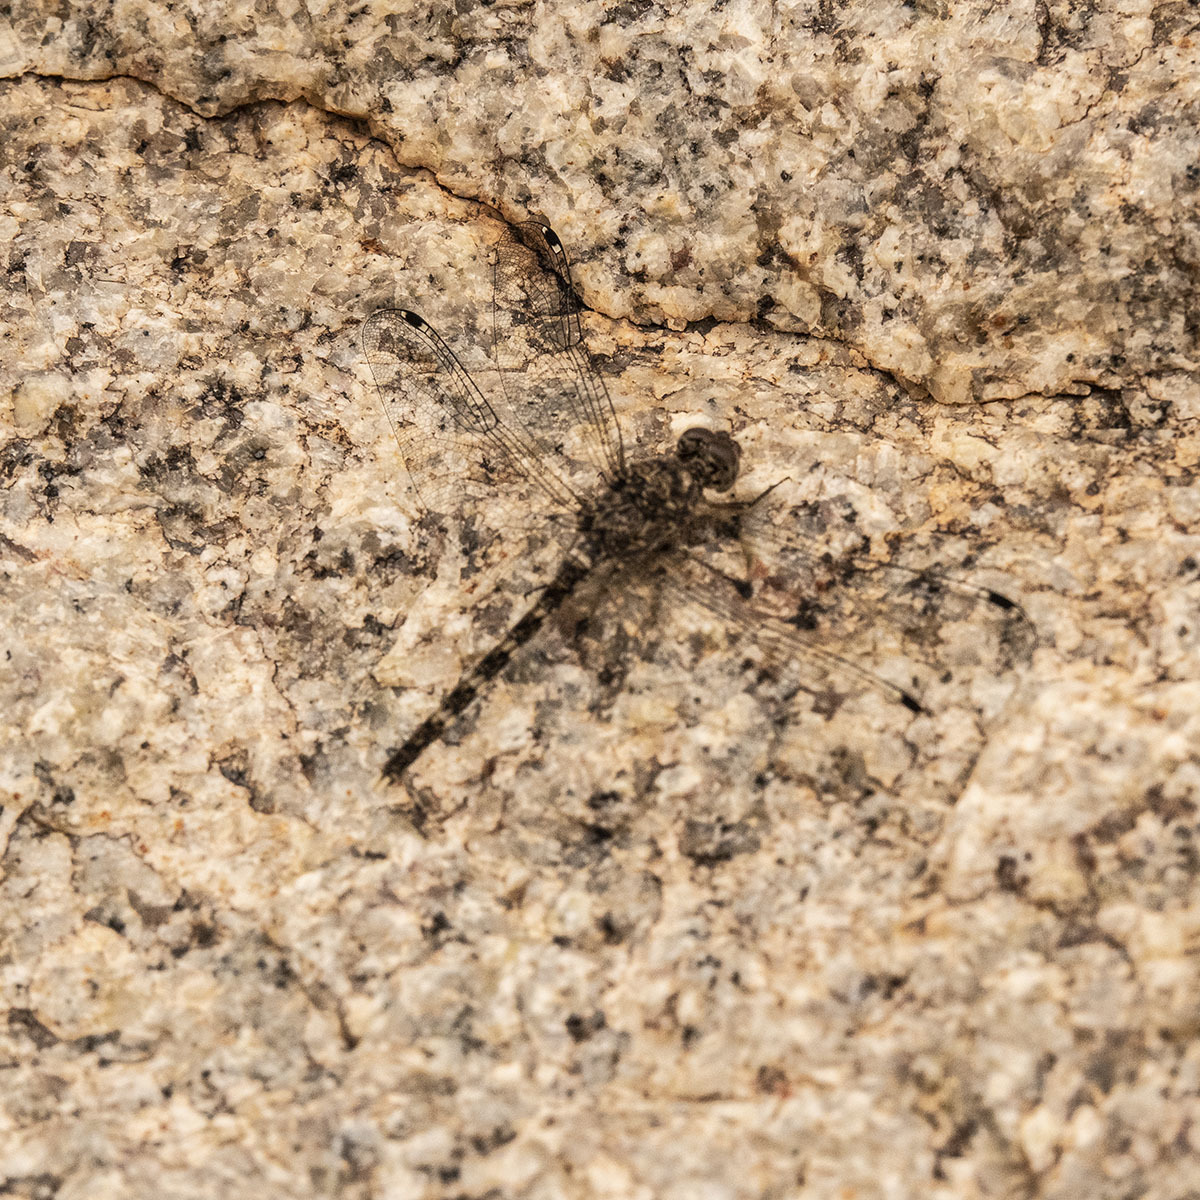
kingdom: Animalia
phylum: Arthropoda
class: Insecta
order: Odonata
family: Libellulidae
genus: Bradinopyga
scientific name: Bradinopyga geminata
